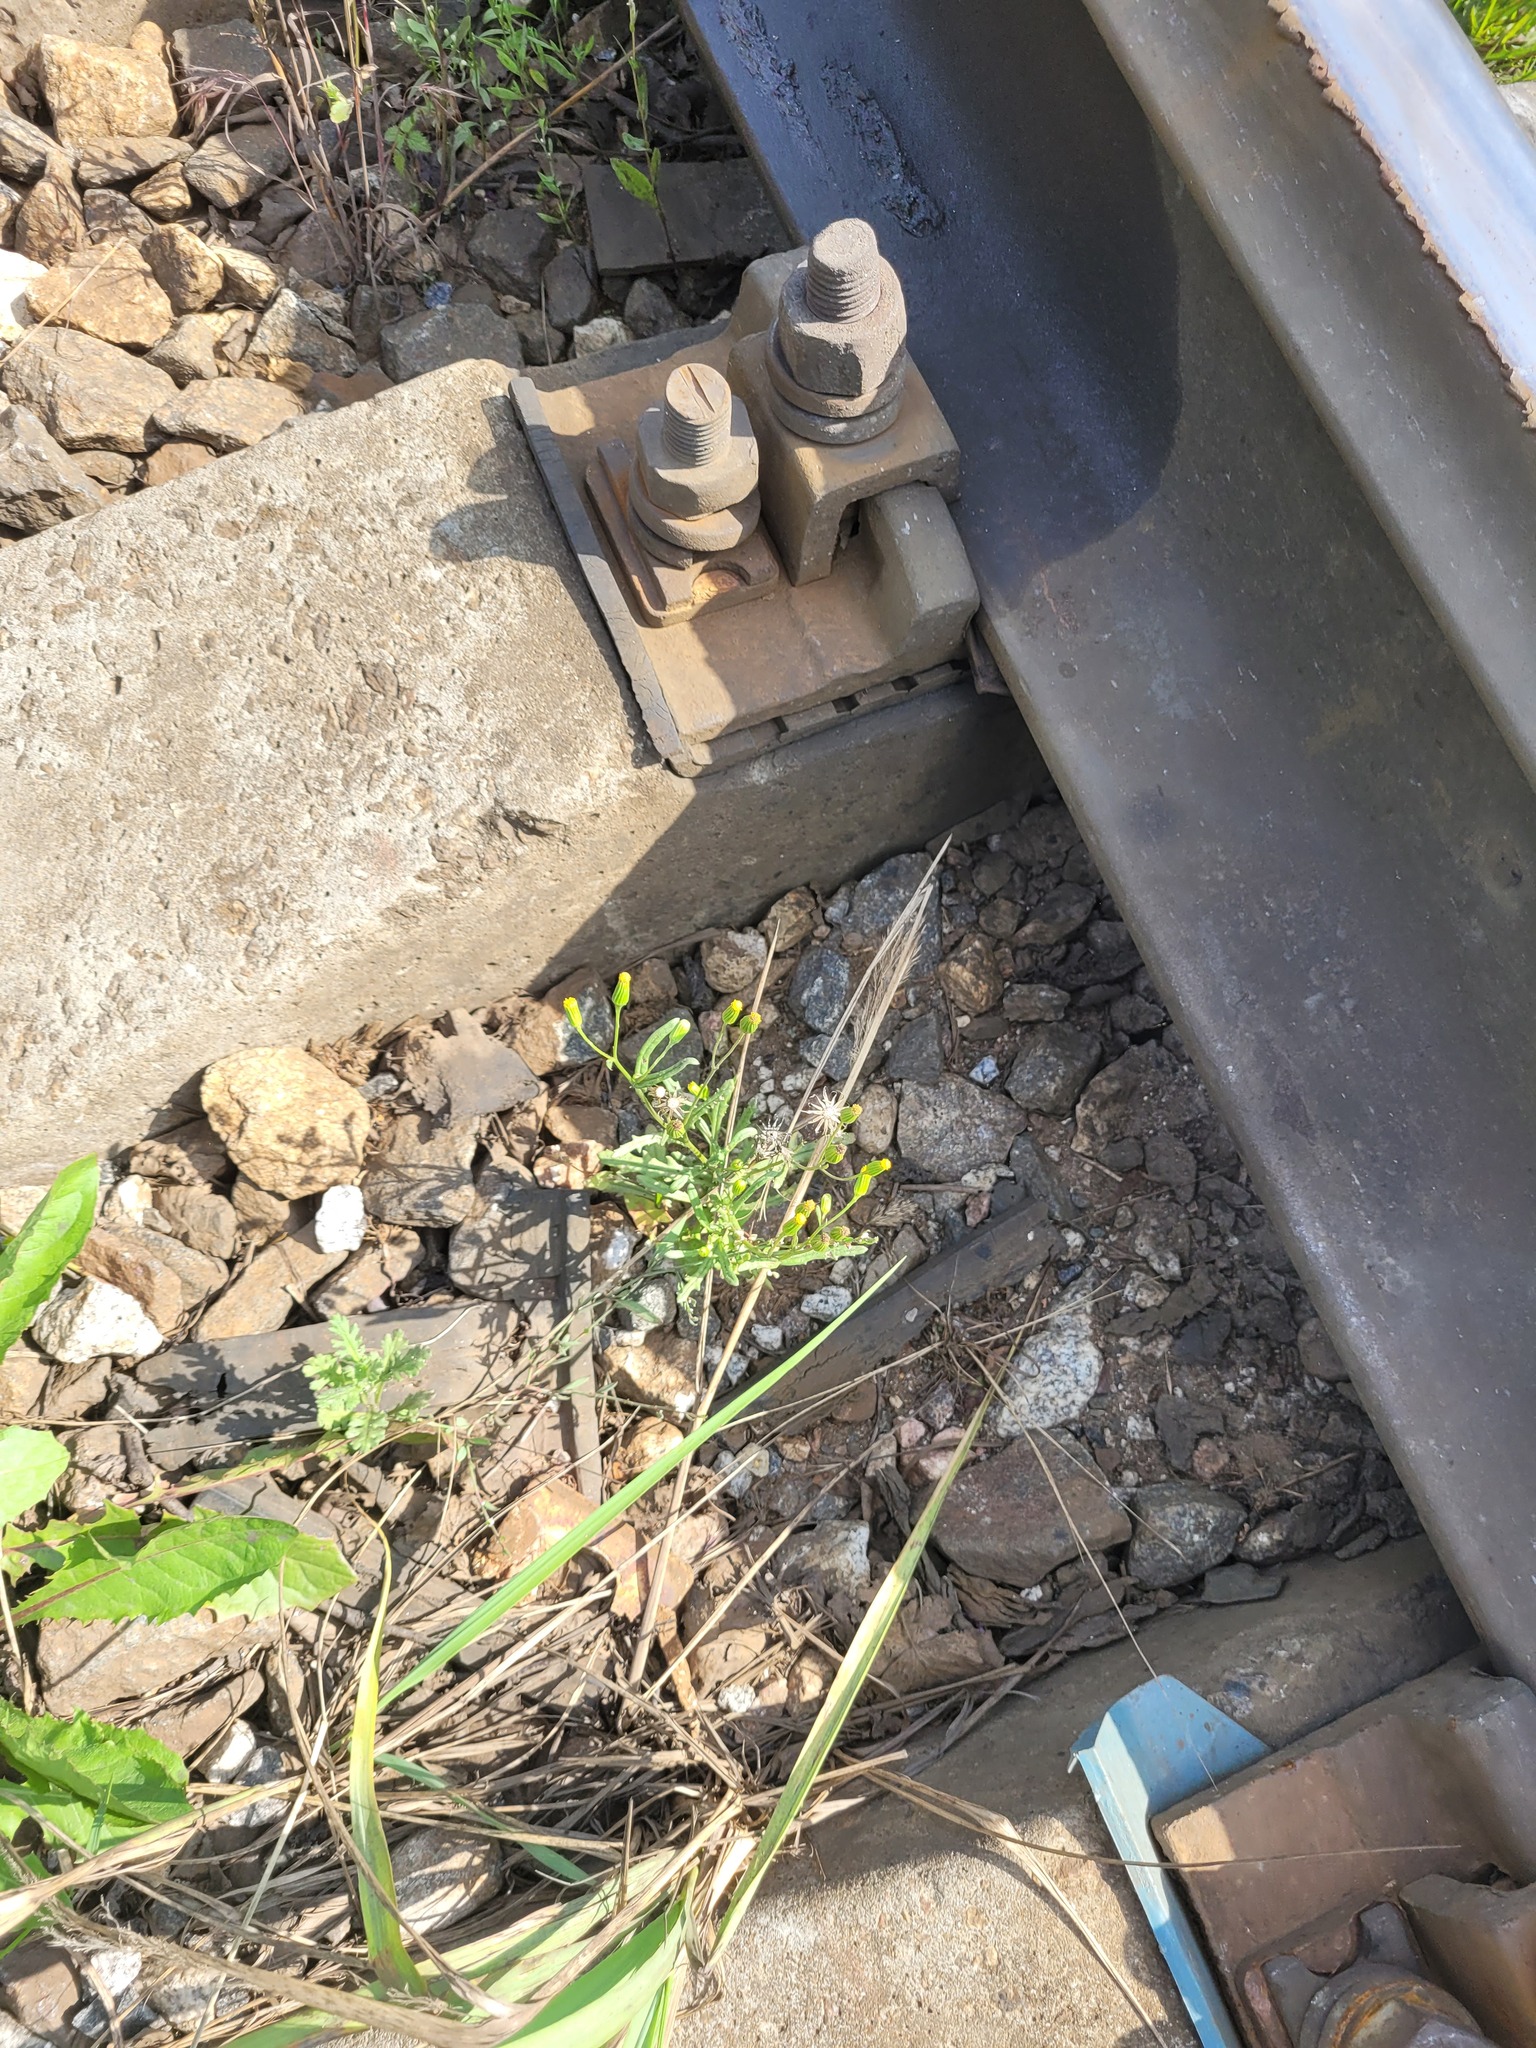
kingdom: Plantae
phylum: Tracheophyta
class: Magnoliopsida
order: Asterales
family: Asteraceae
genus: Senecio
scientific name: Senecio dubitabilis
